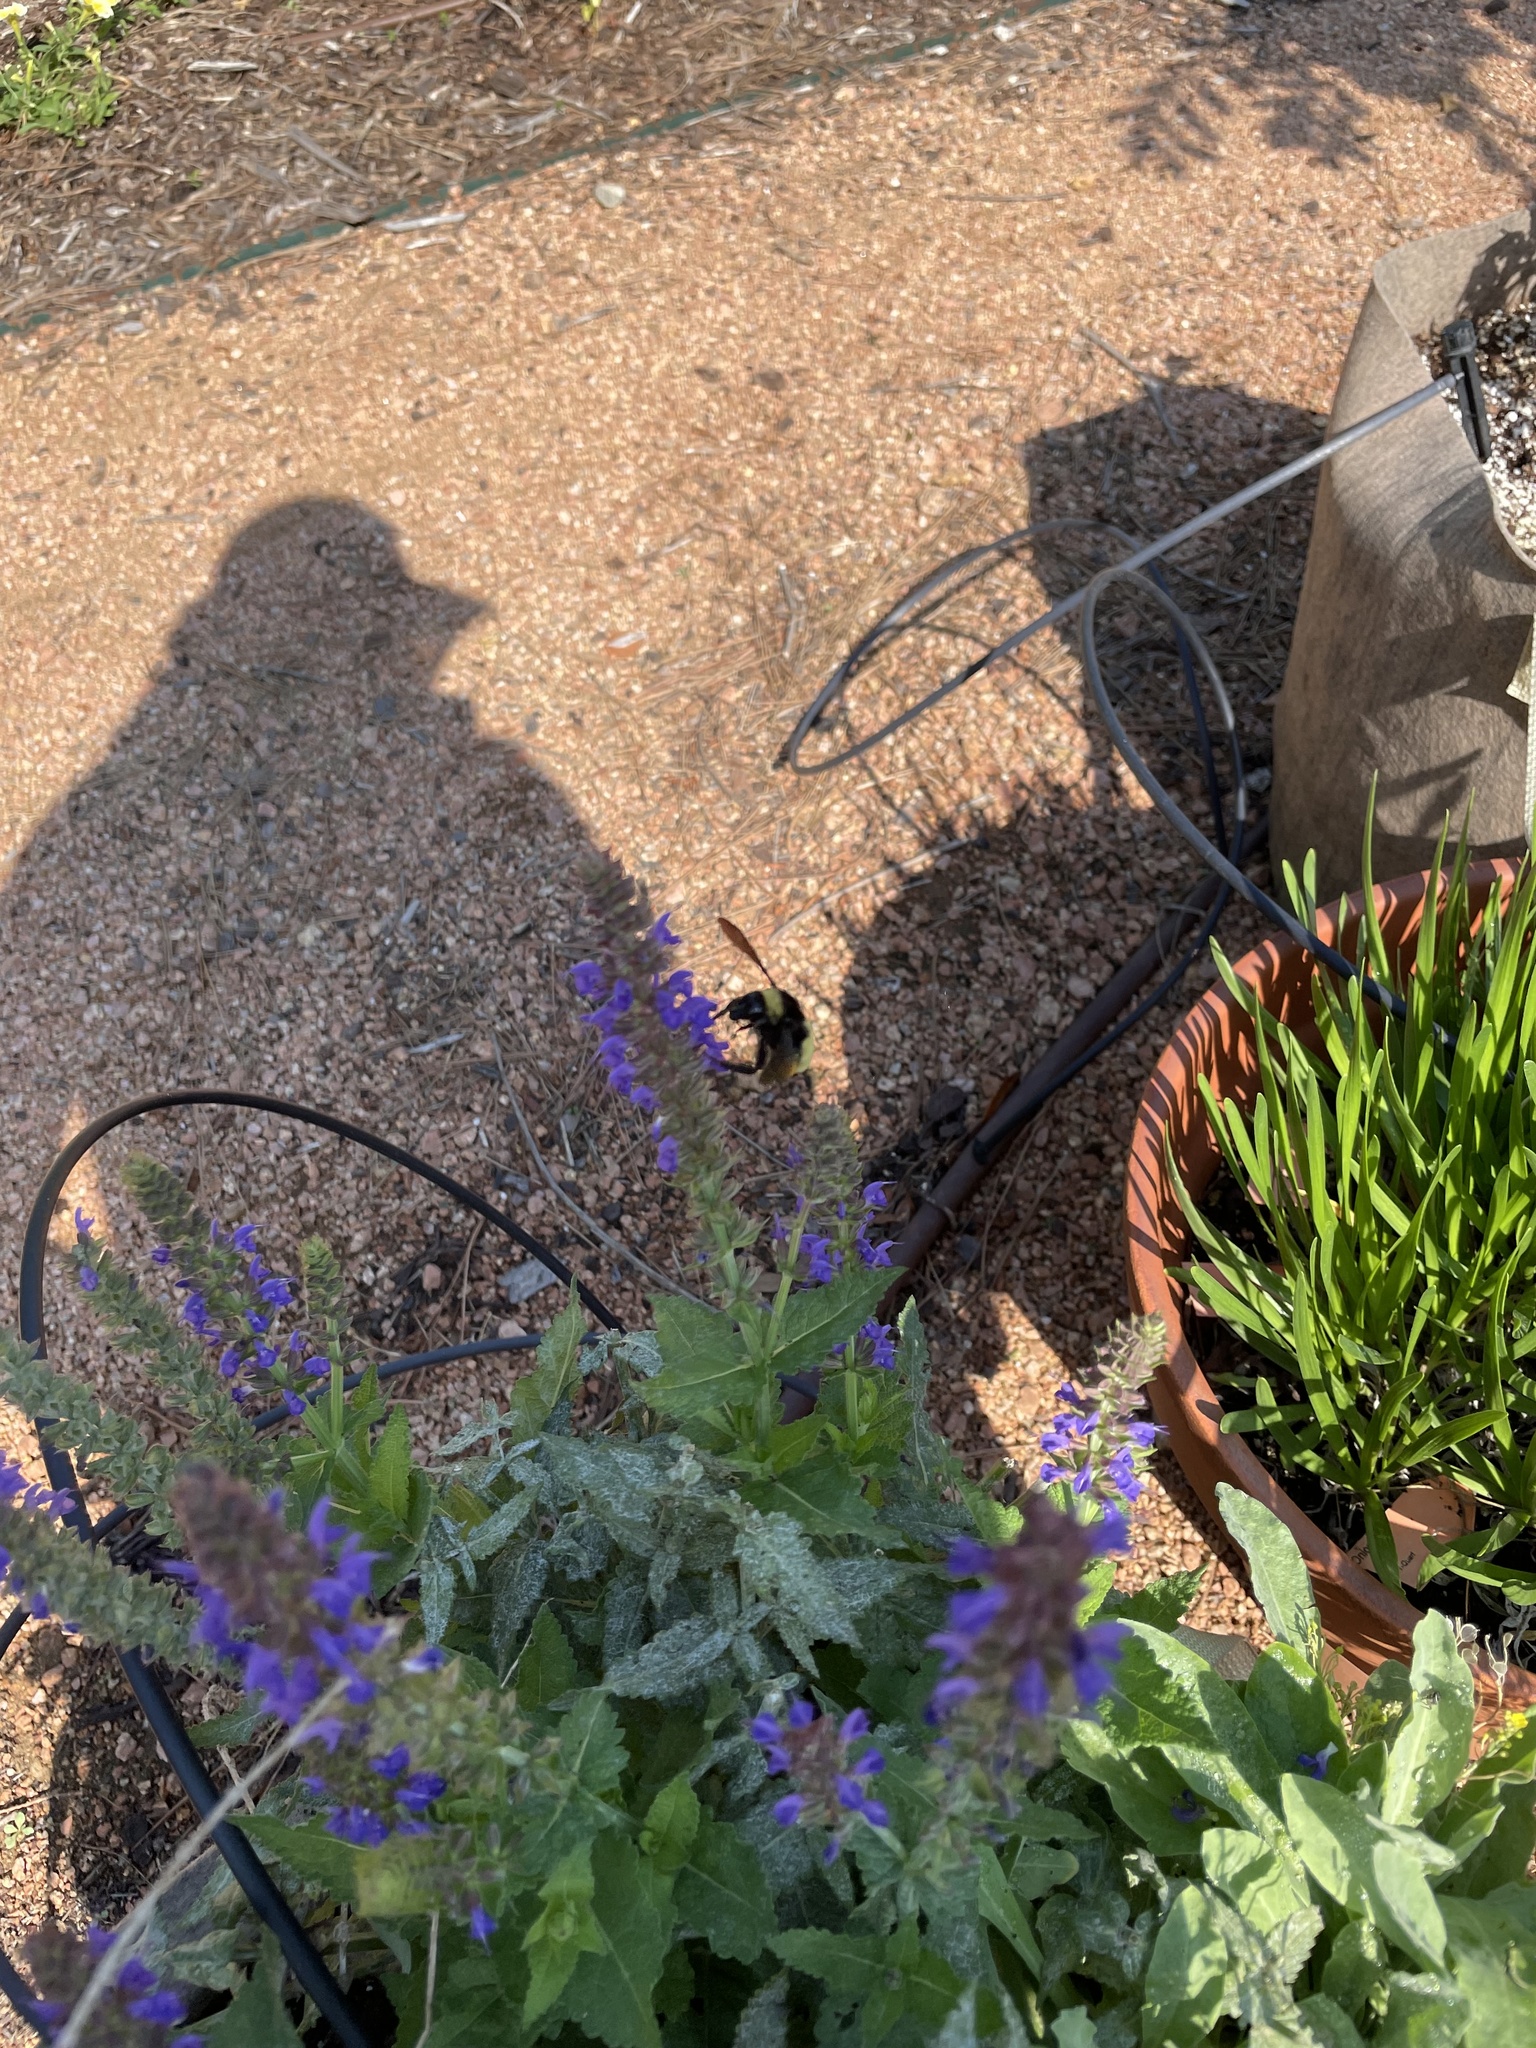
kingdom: Animalia
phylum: Arthropoda
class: Insecta
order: Hymenoptera
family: Apidae
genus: Bombus
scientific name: Bombus pensylvanicus
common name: Bumble bee
